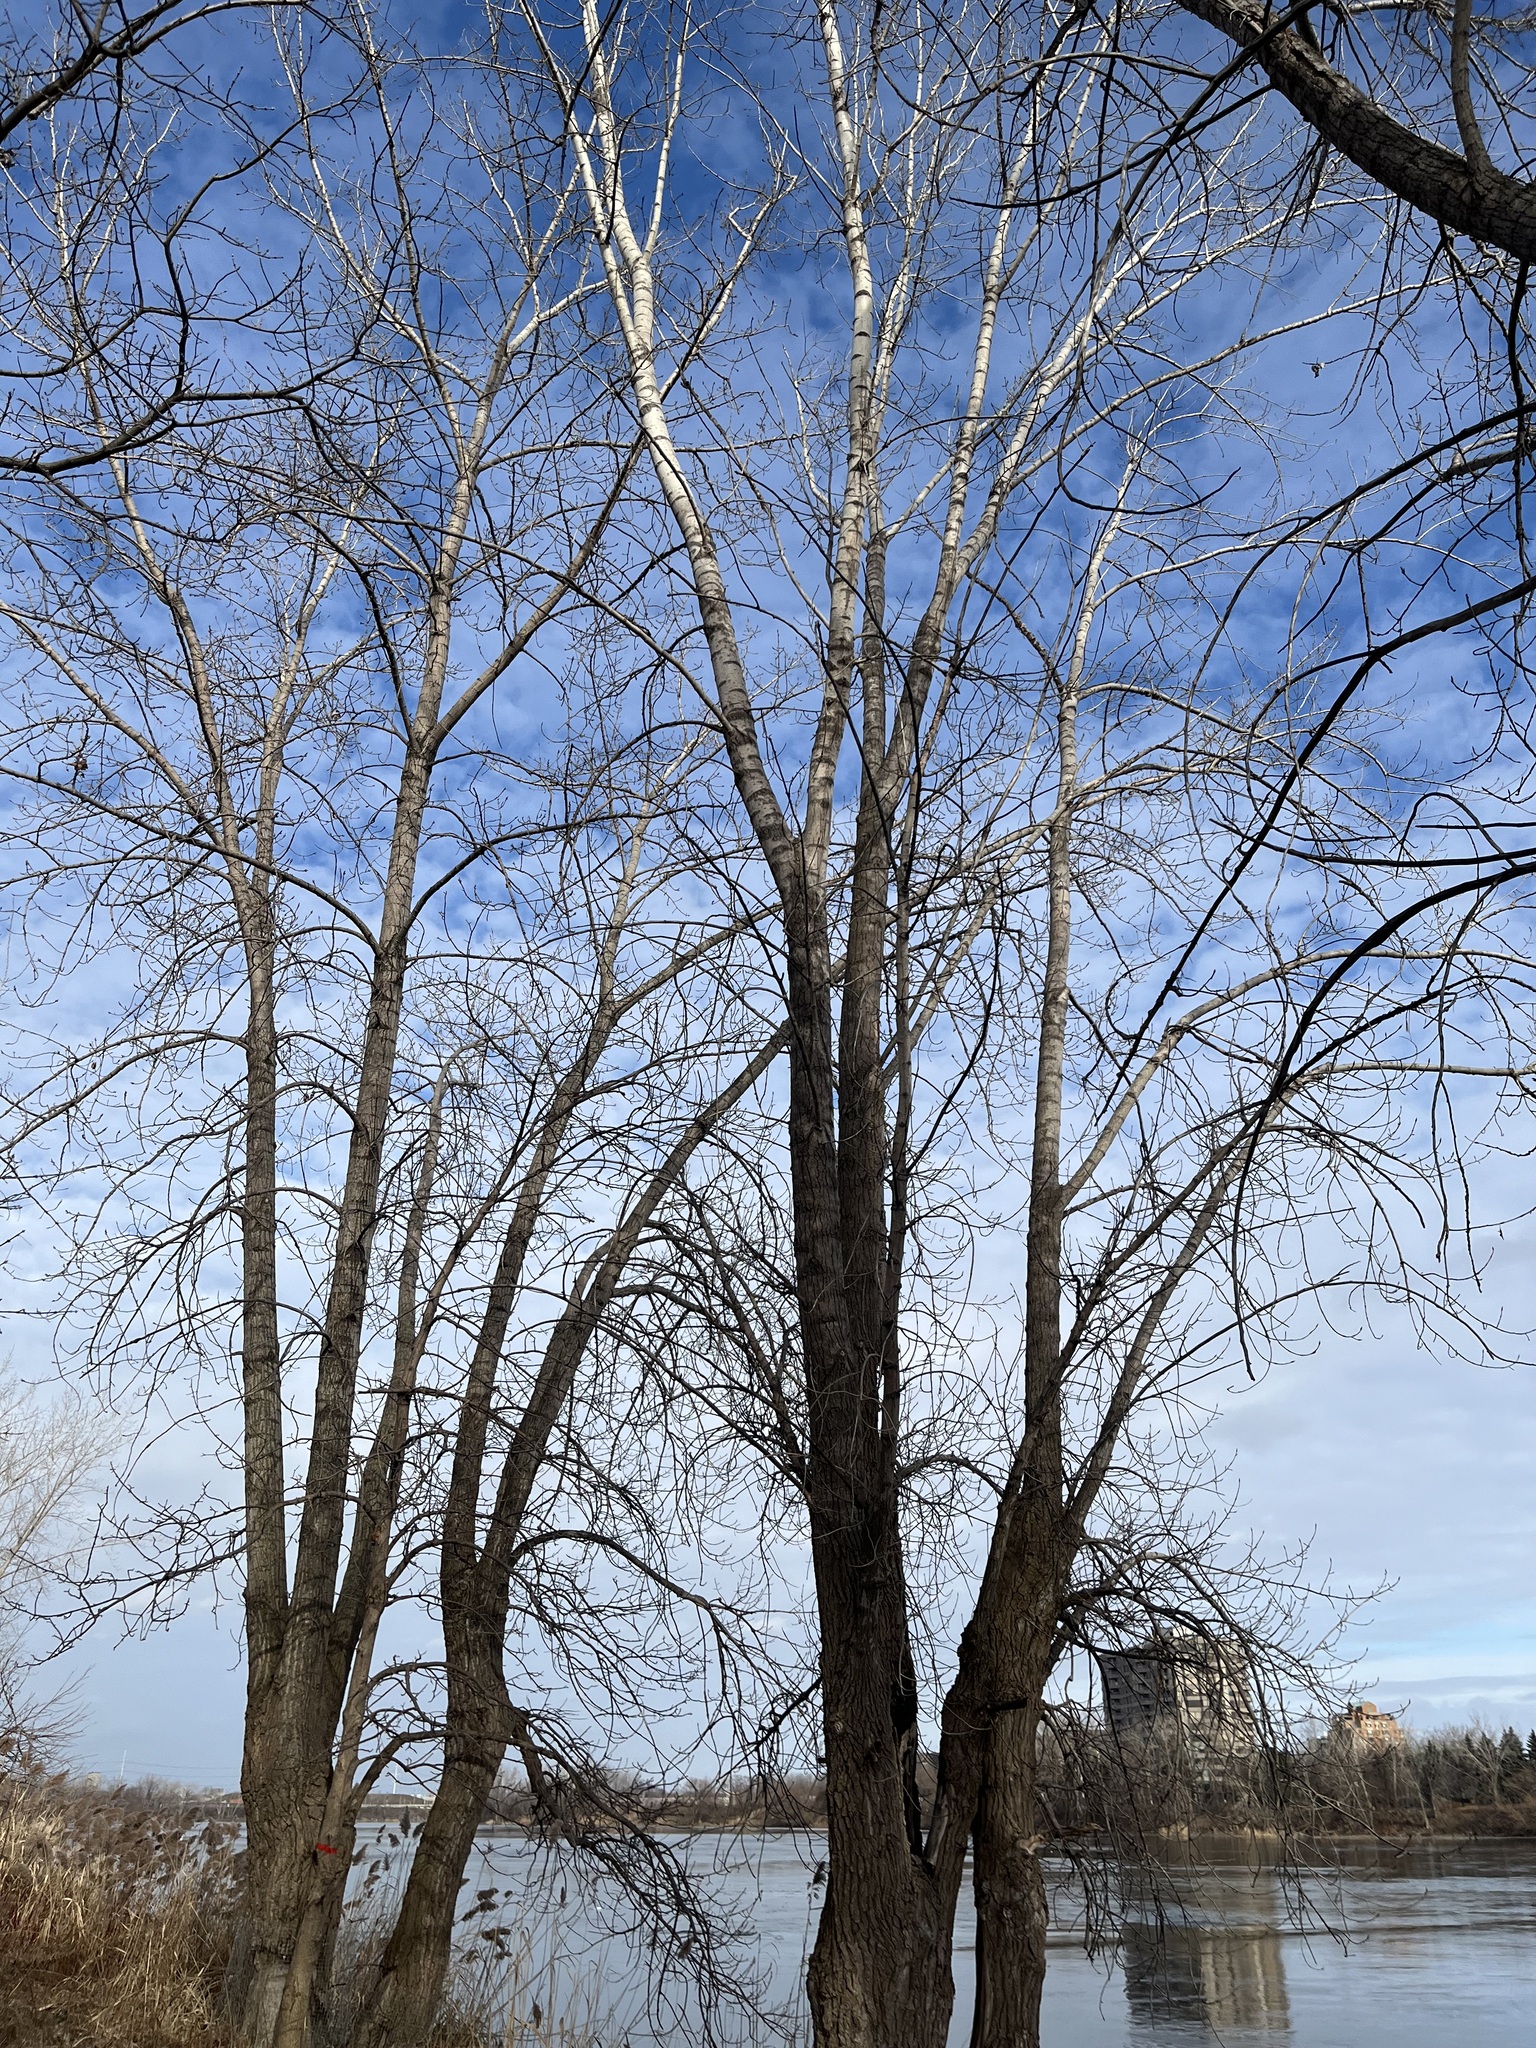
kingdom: Plantae
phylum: Tracheophyta
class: Magnoliopsida
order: Malpighiales
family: Salicaceae
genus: Populus
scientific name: Populus deltoides
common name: Eastern cottonwood
